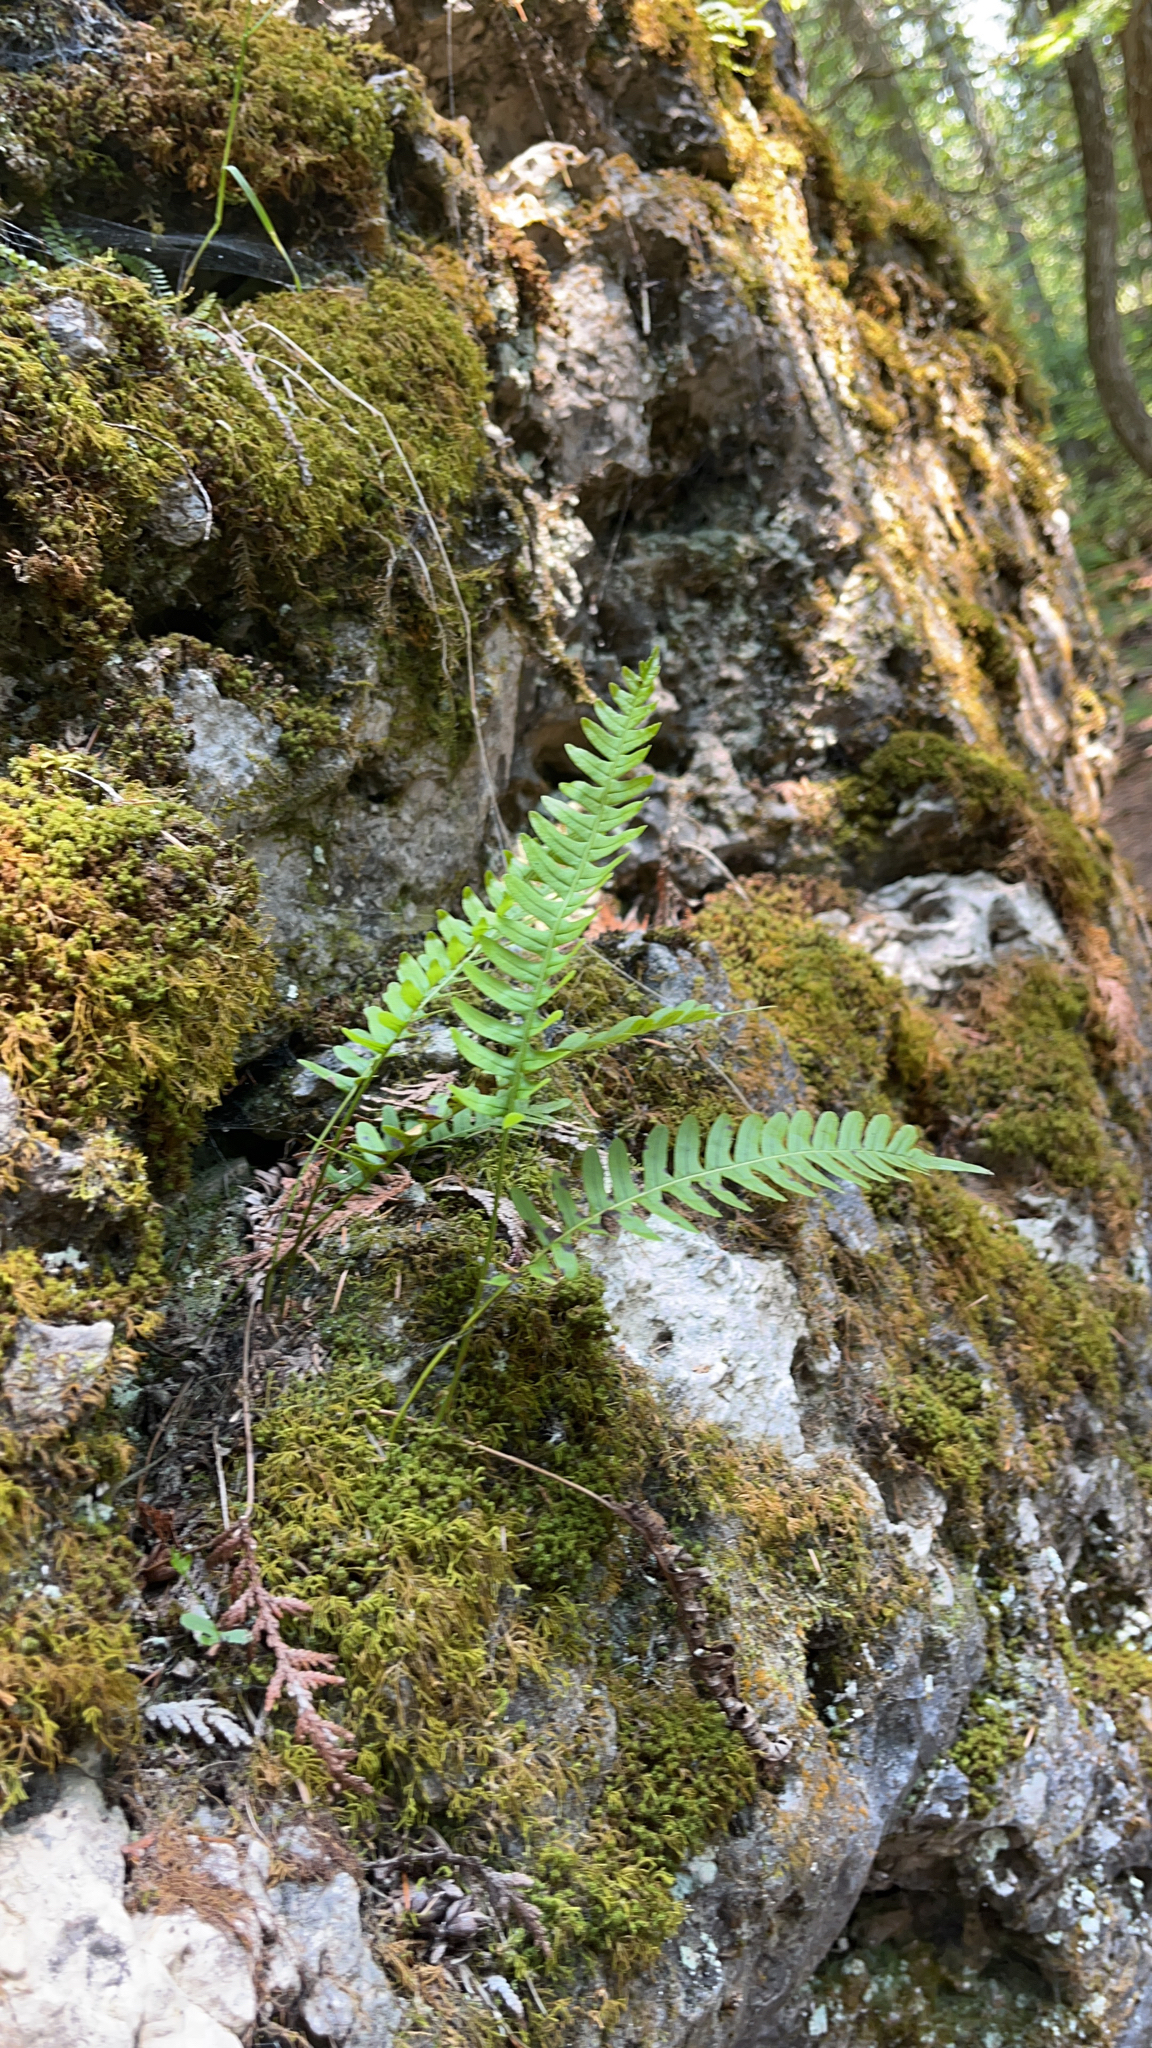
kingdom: Plantae
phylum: Tracheophyta
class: Polypodiopsida
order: Polypodiales
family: Polypodiaceae
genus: Polypodium
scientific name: Polypodium virginianum
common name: American wall fern
